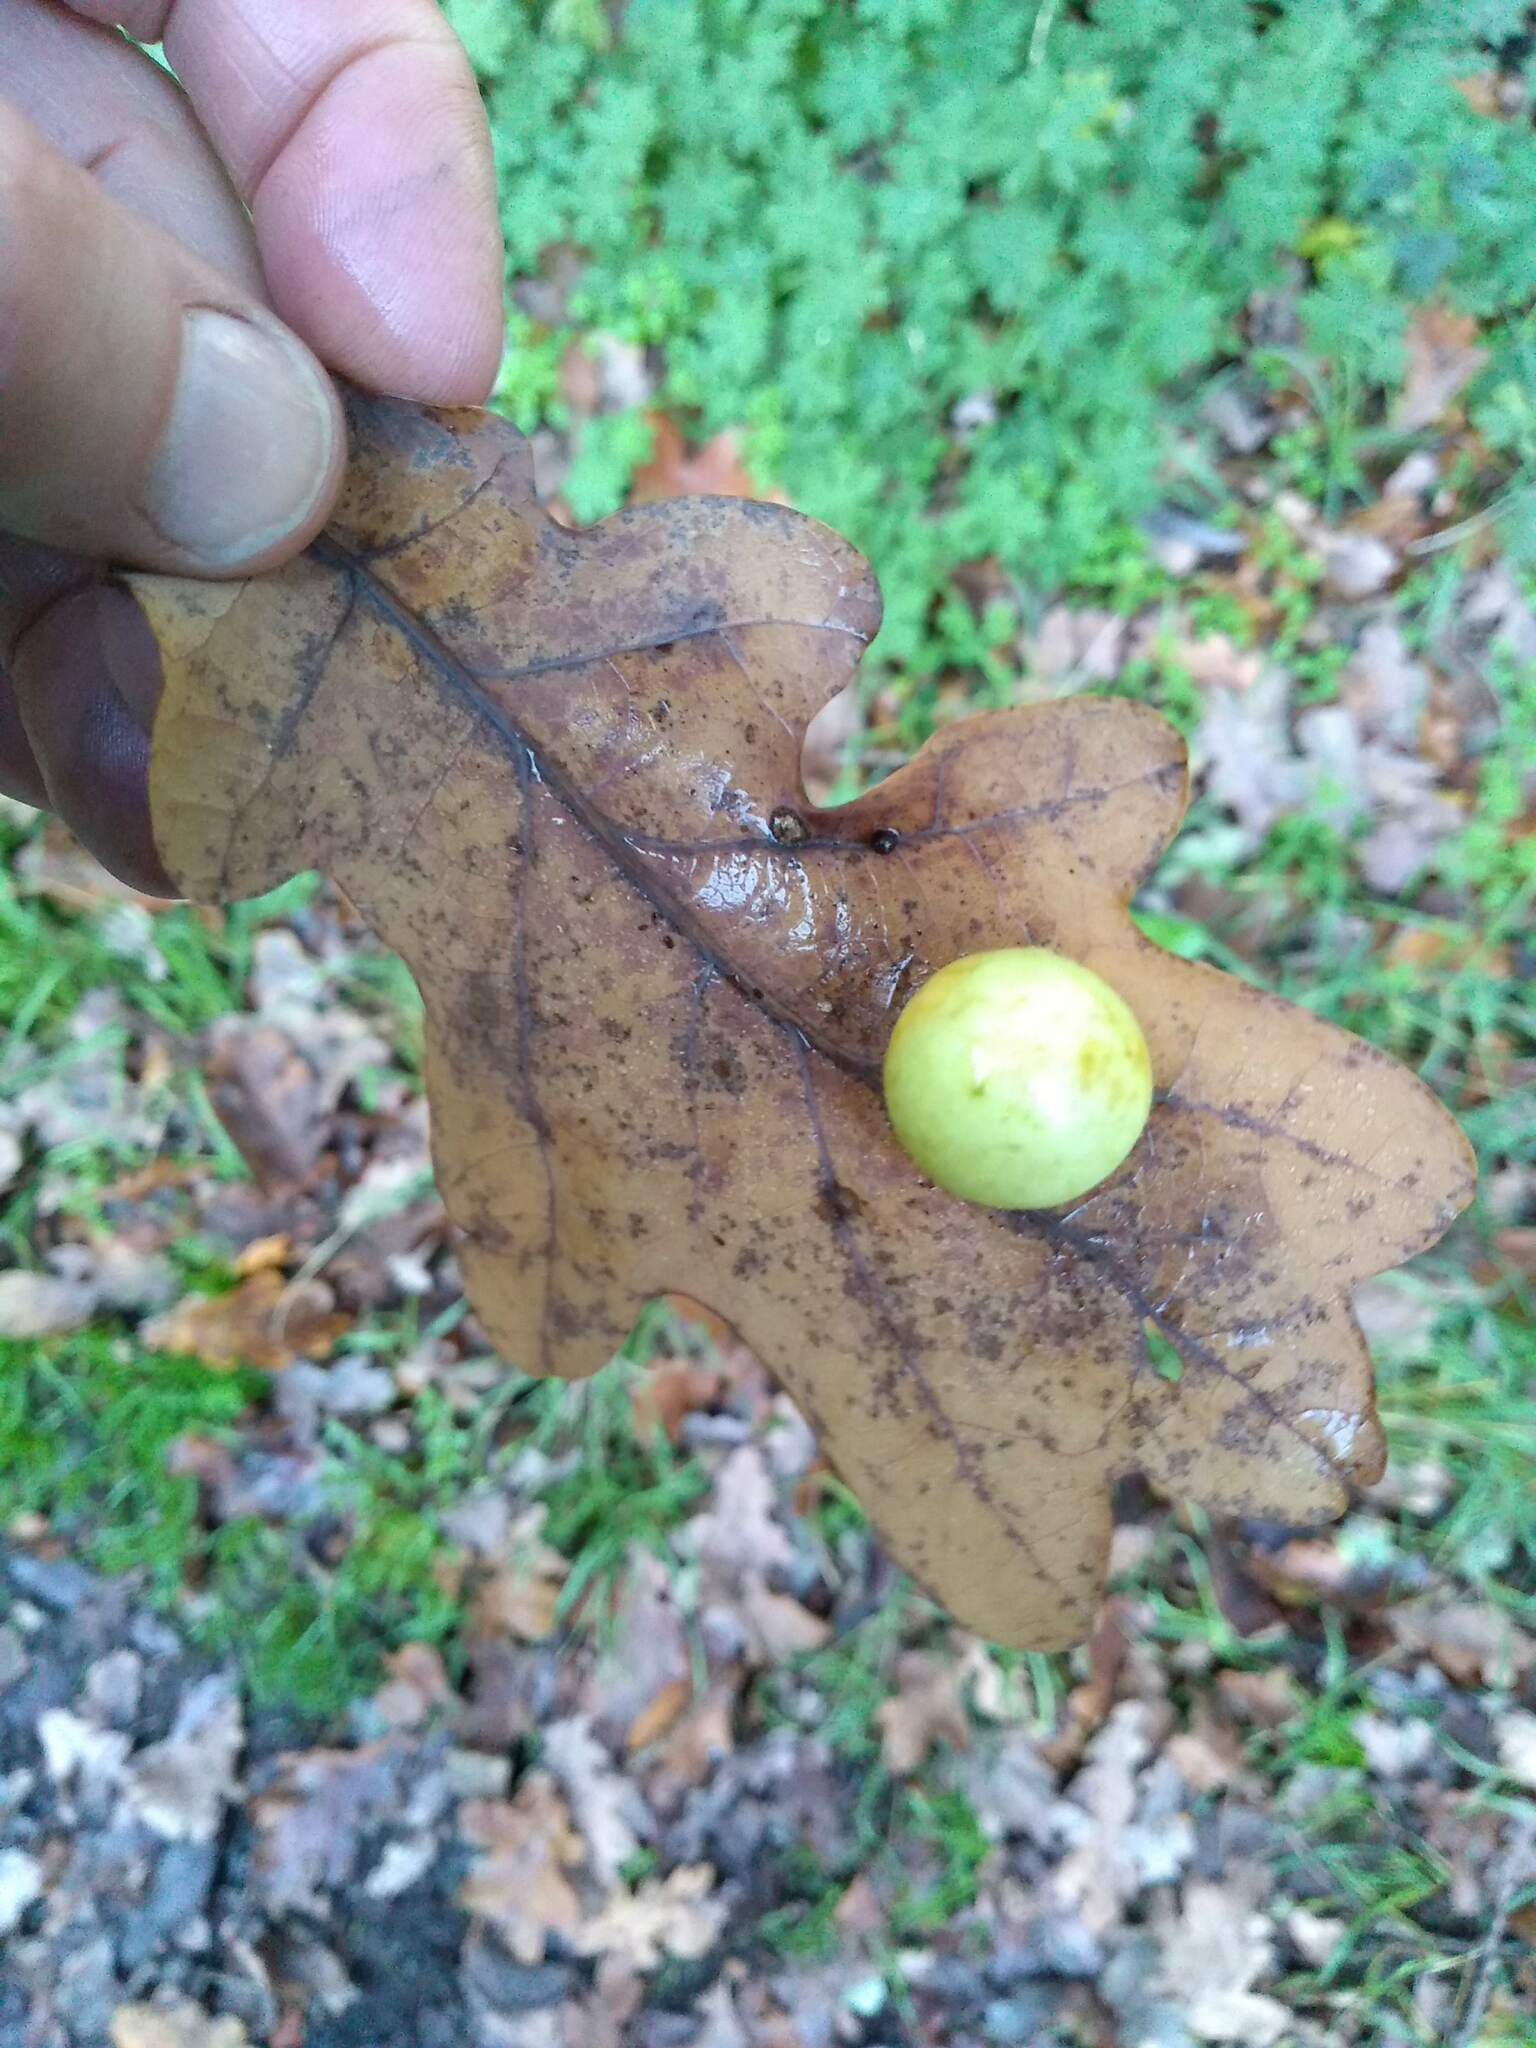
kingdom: Animalia
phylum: Arthropoda
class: Insecta
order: Hymenoptera
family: Cynipidae
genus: Cynips
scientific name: Cynips quercusfolii
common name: Cherry gall
